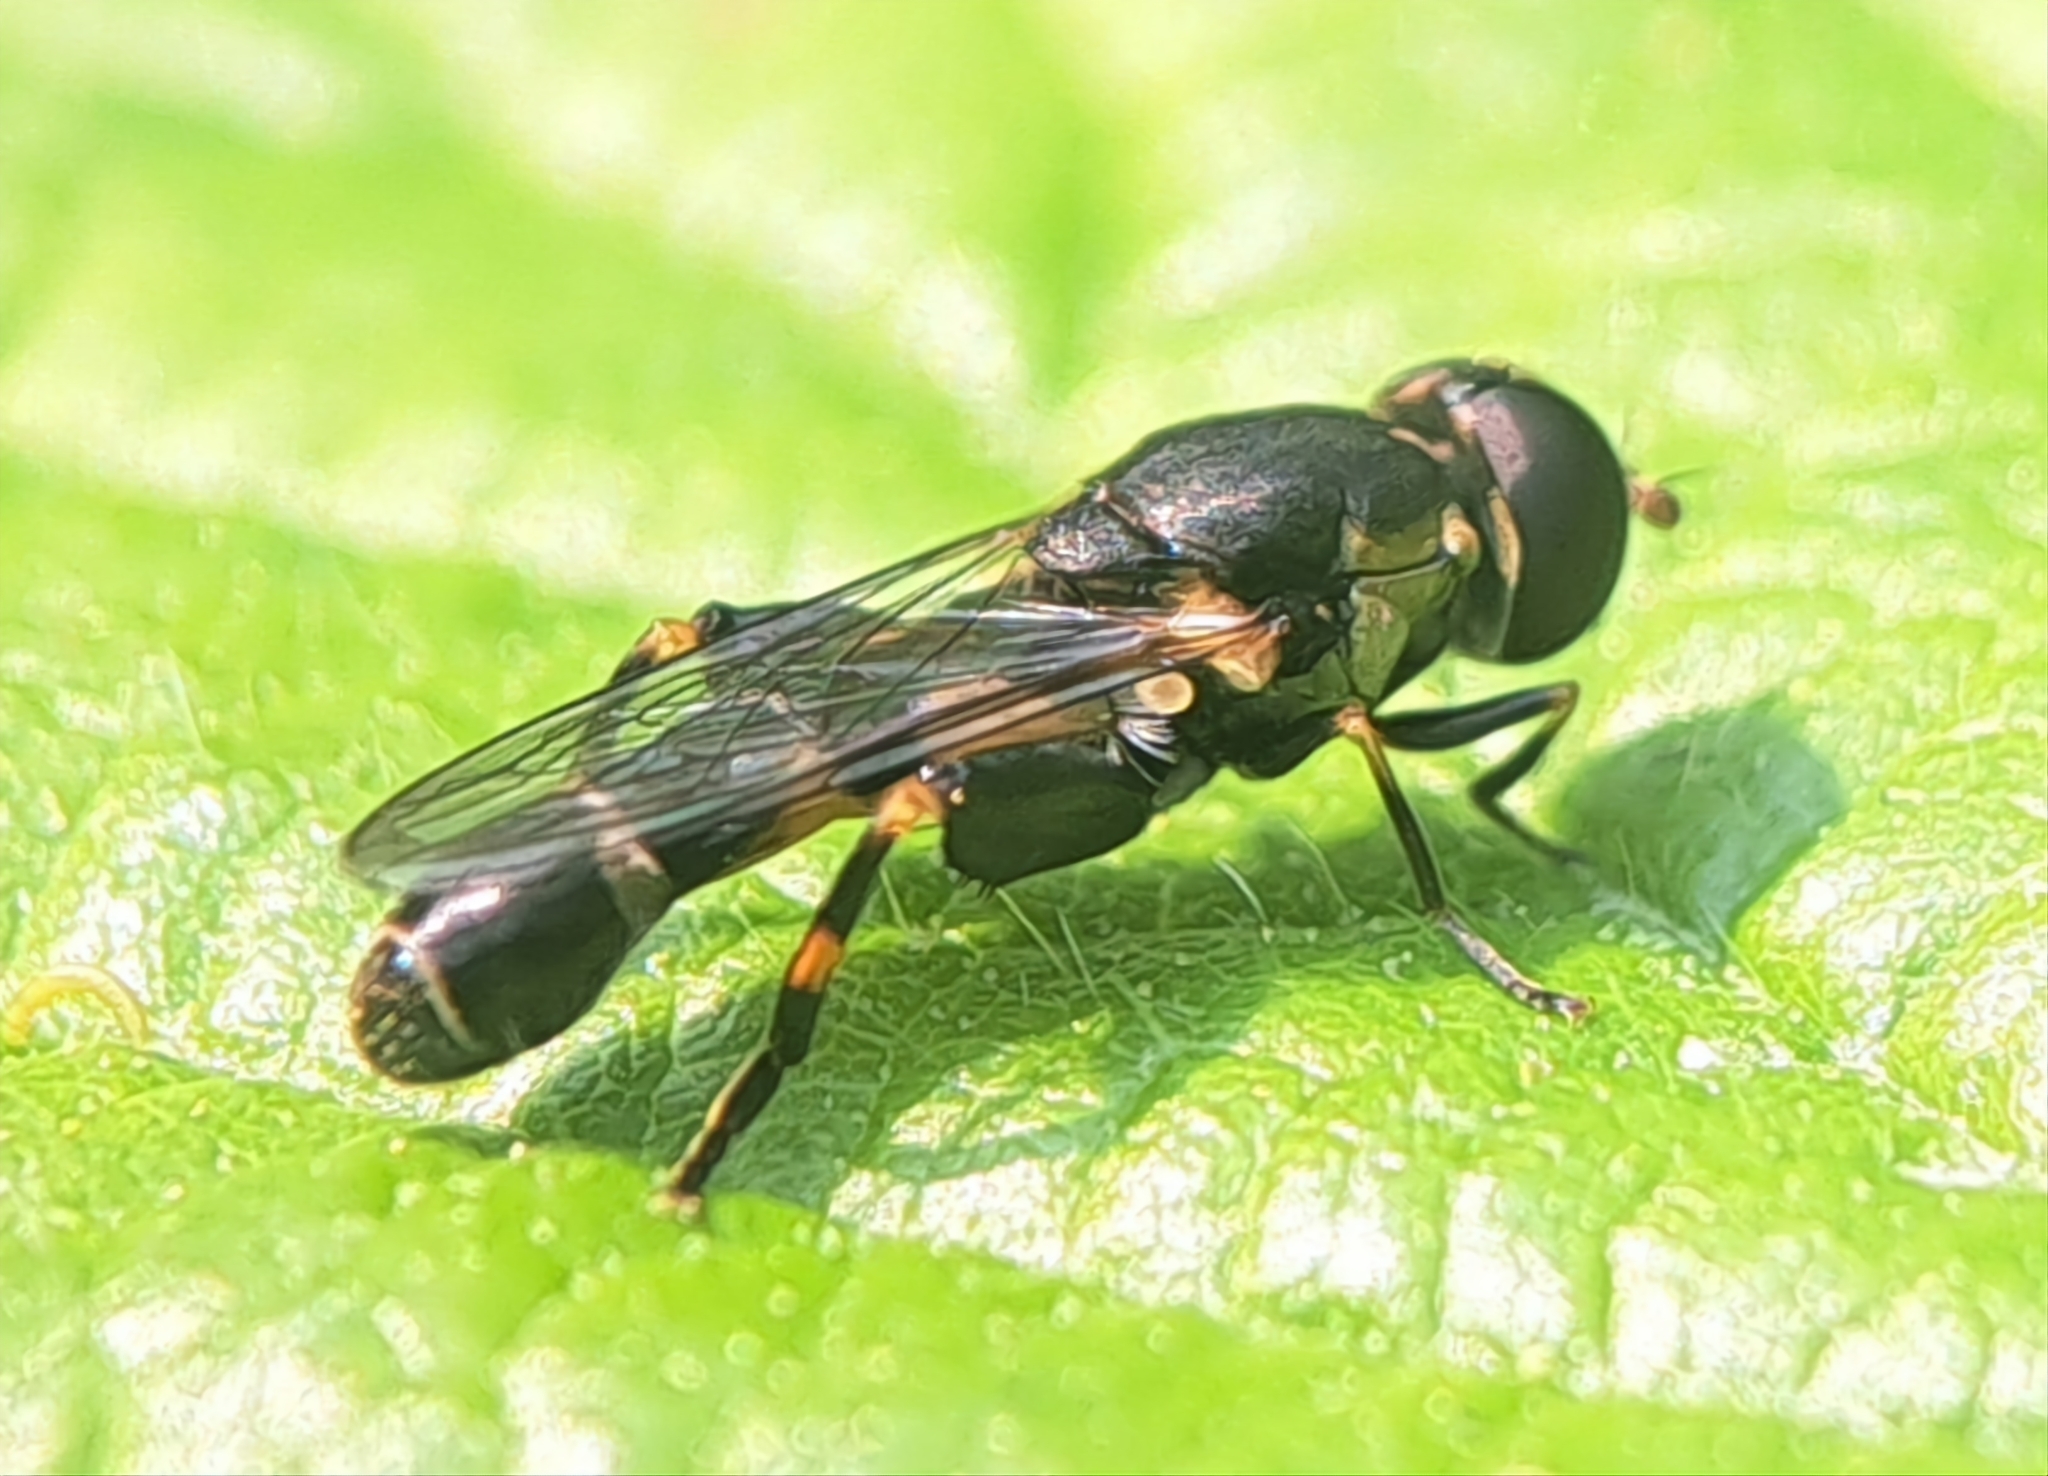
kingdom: Animalia
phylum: Arthropoda
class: Insecta
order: Diptera
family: Syrphidae
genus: Syritta
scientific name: Syritta pipiens
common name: Hover fly
